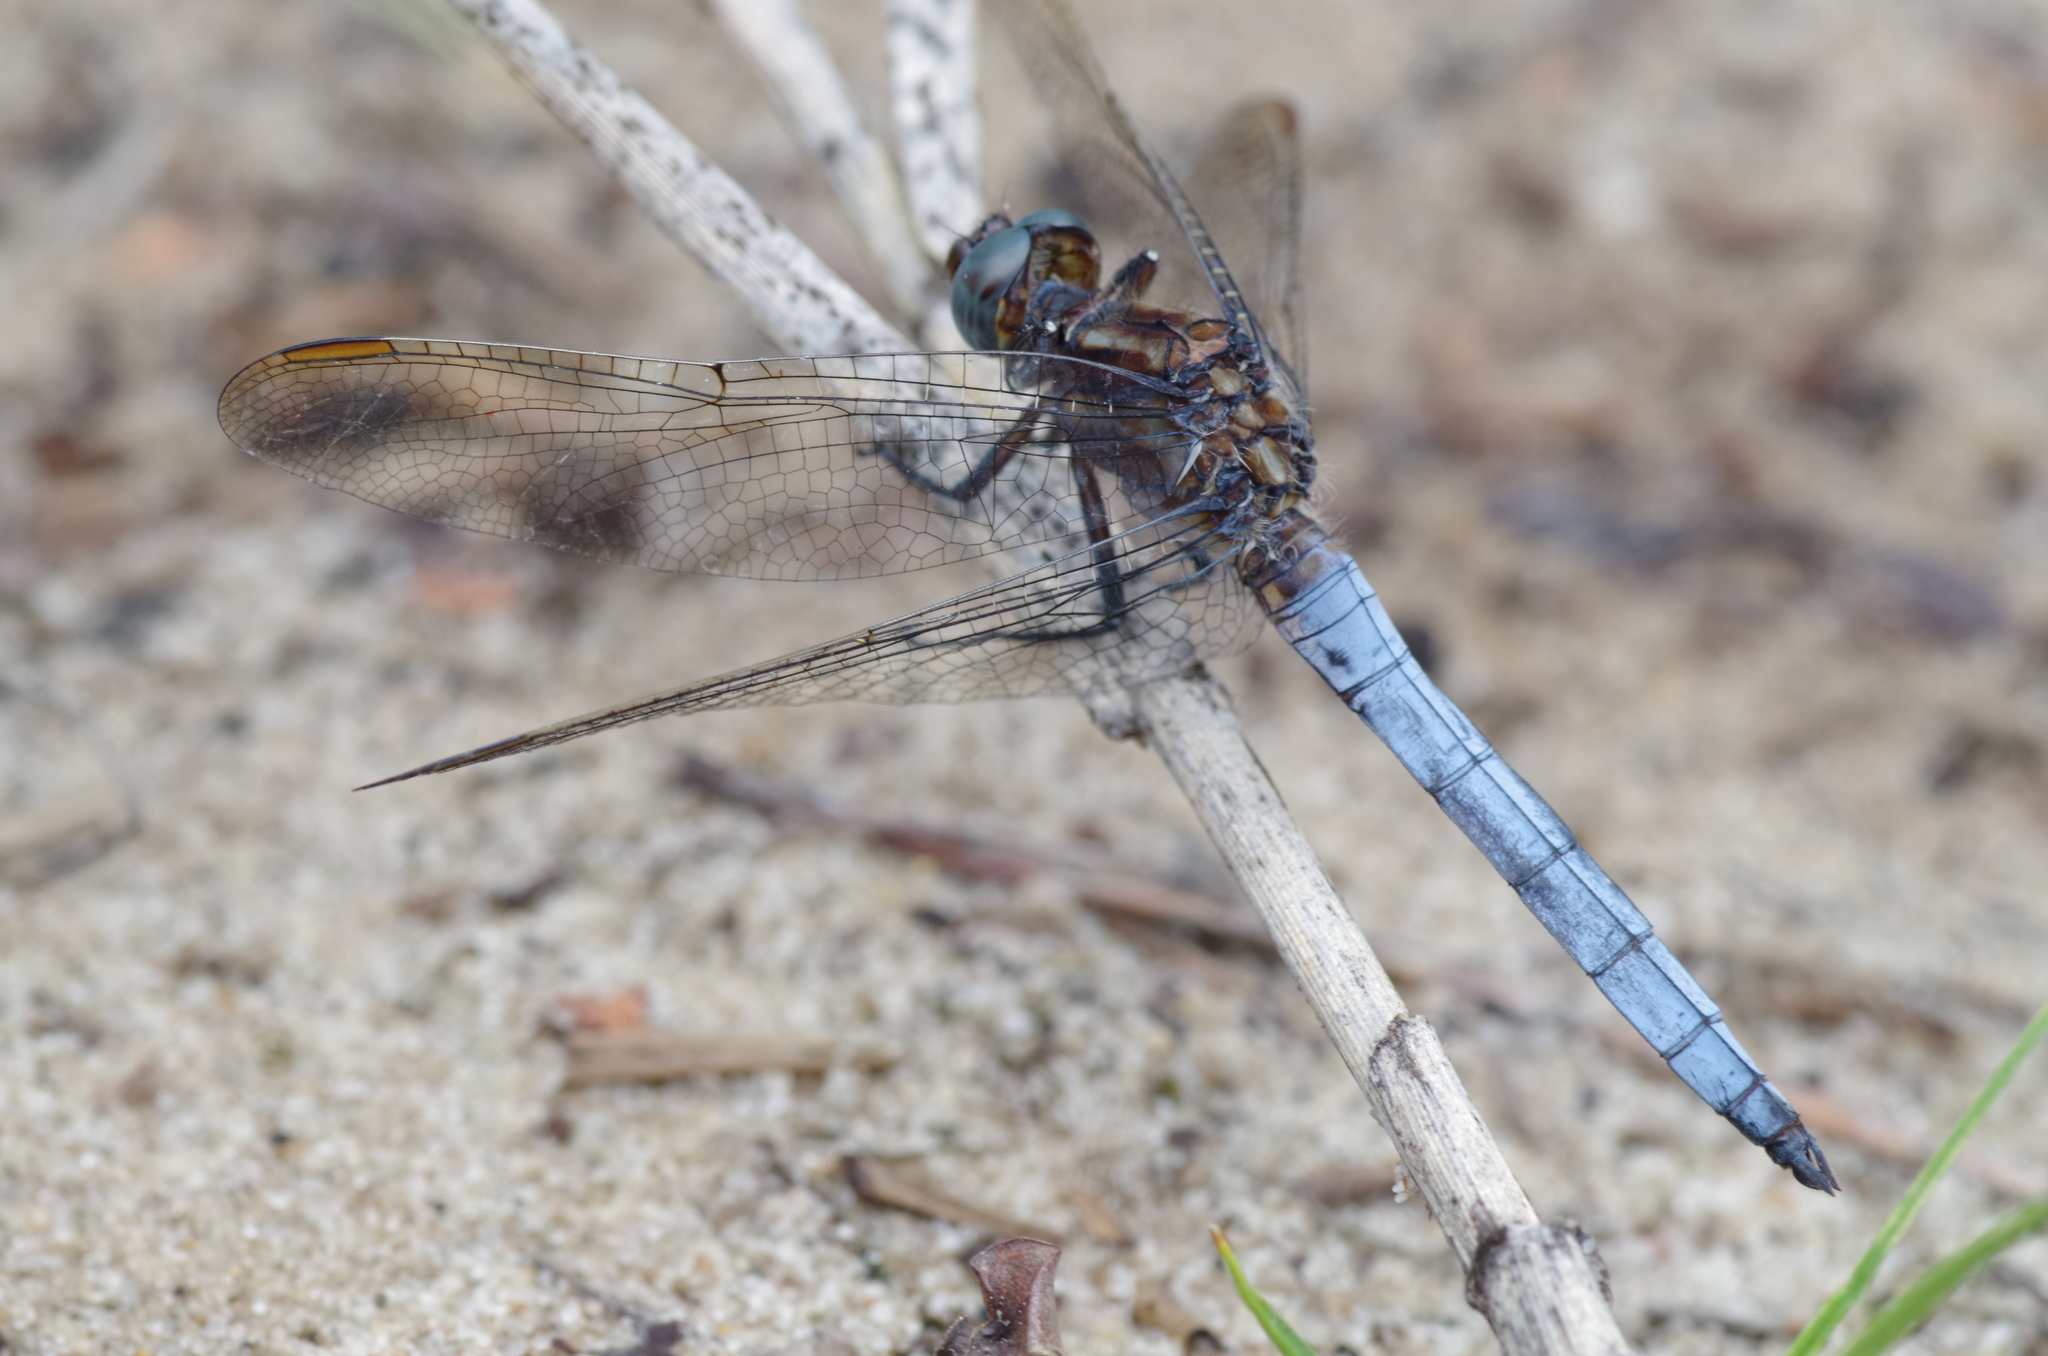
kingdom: Animalia
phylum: Arthropoda
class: Insecta
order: Odonata
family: Libellulidae
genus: Orthetrum
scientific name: Orthetrum coerulescens
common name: Keeled skimmer
